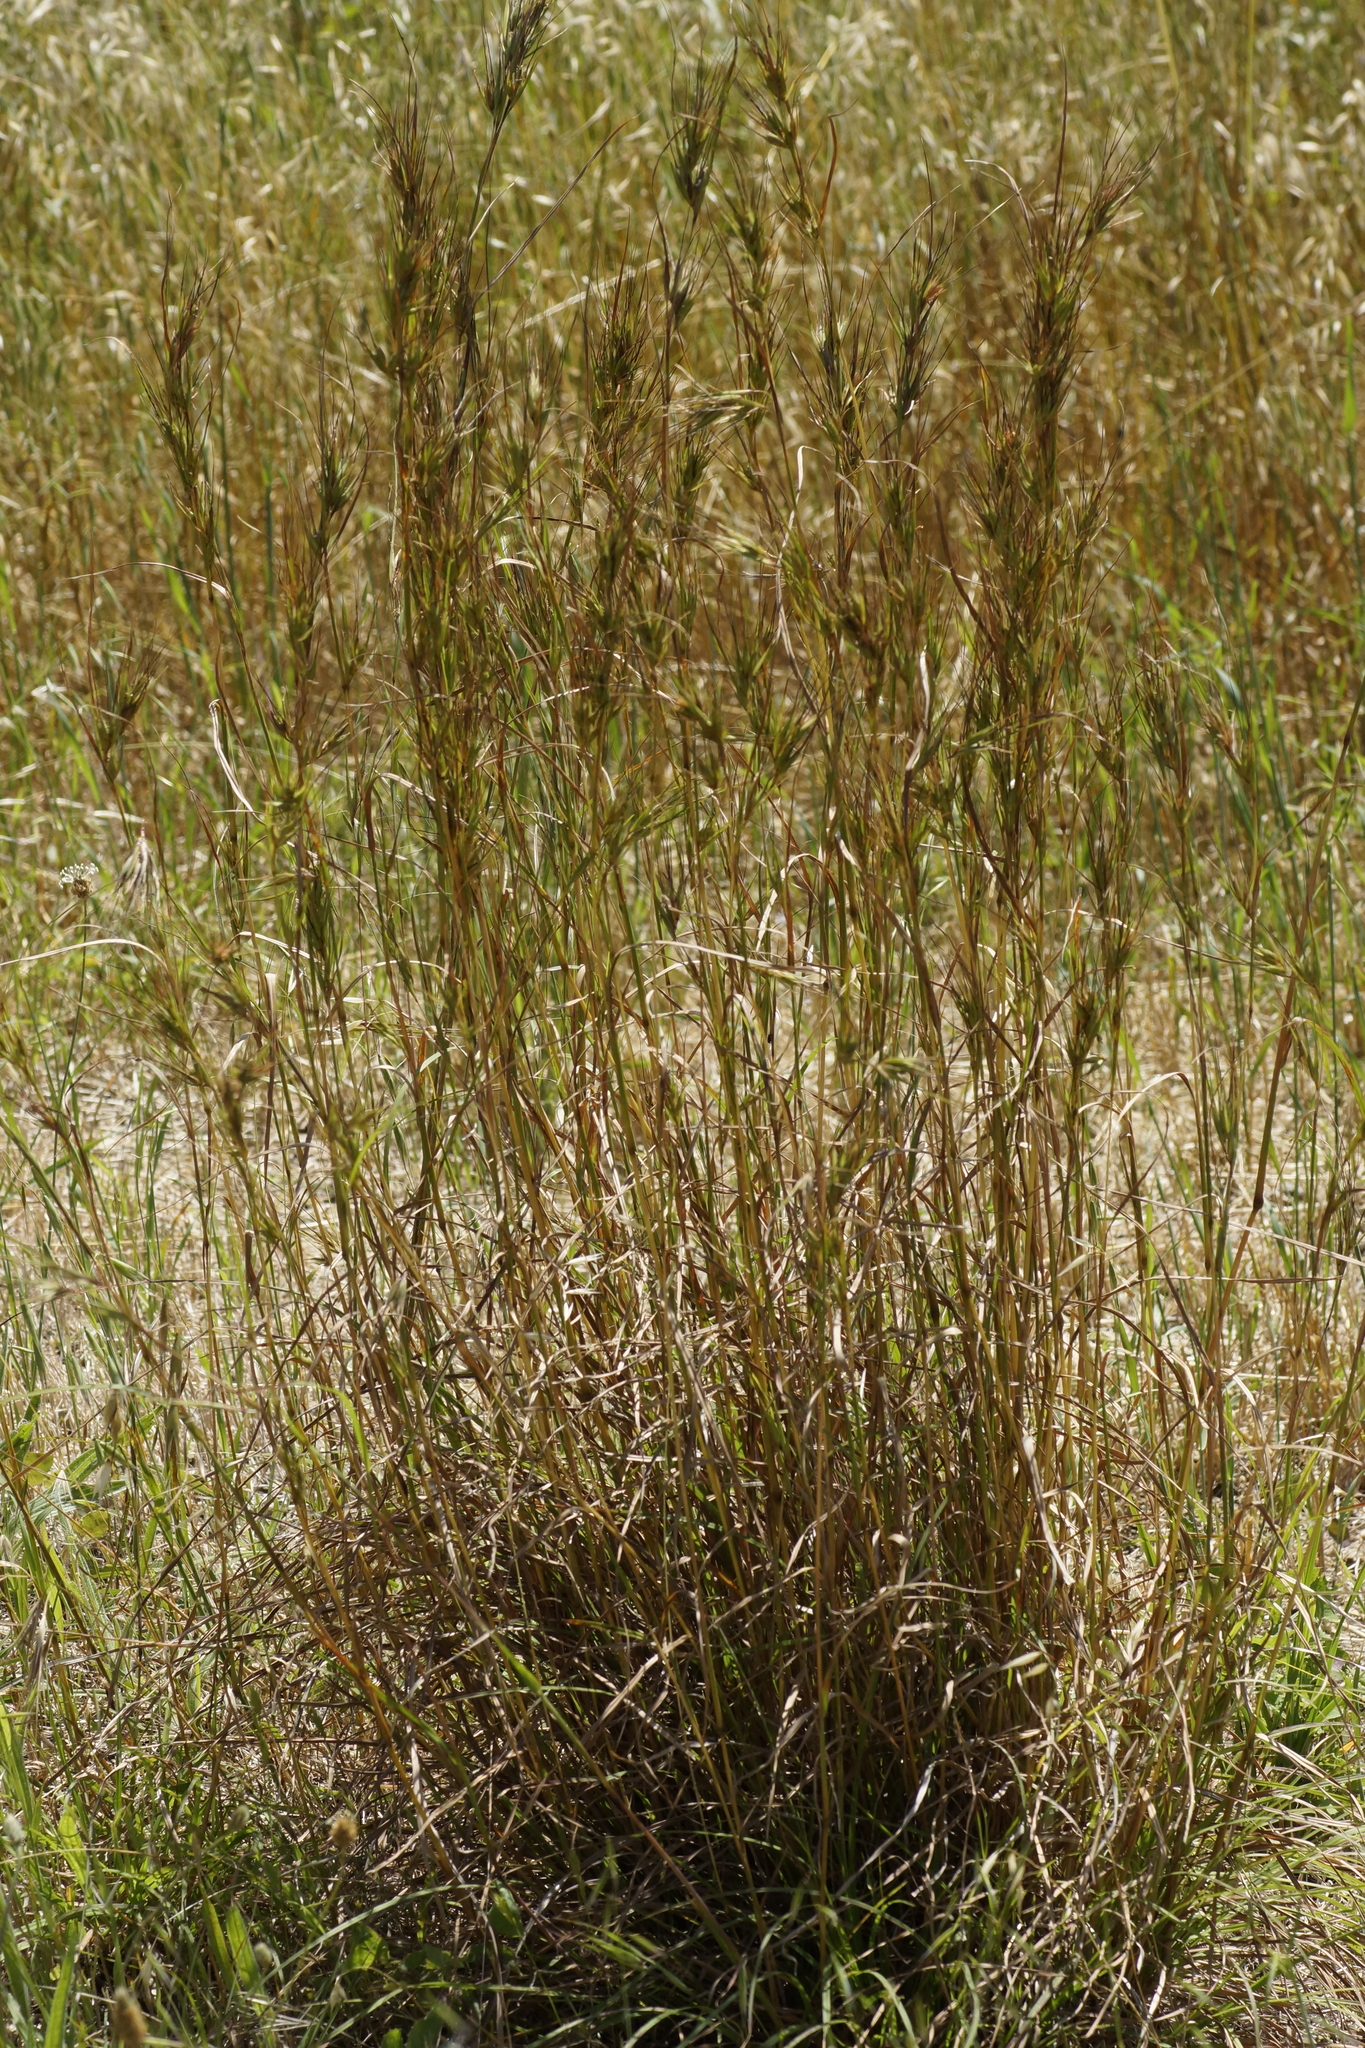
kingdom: Plantae
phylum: Tracheophyta
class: Liliopsida
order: Poales
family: Poaceae
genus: Themeda
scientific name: Themeda triandra
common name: Kangaroo grass
